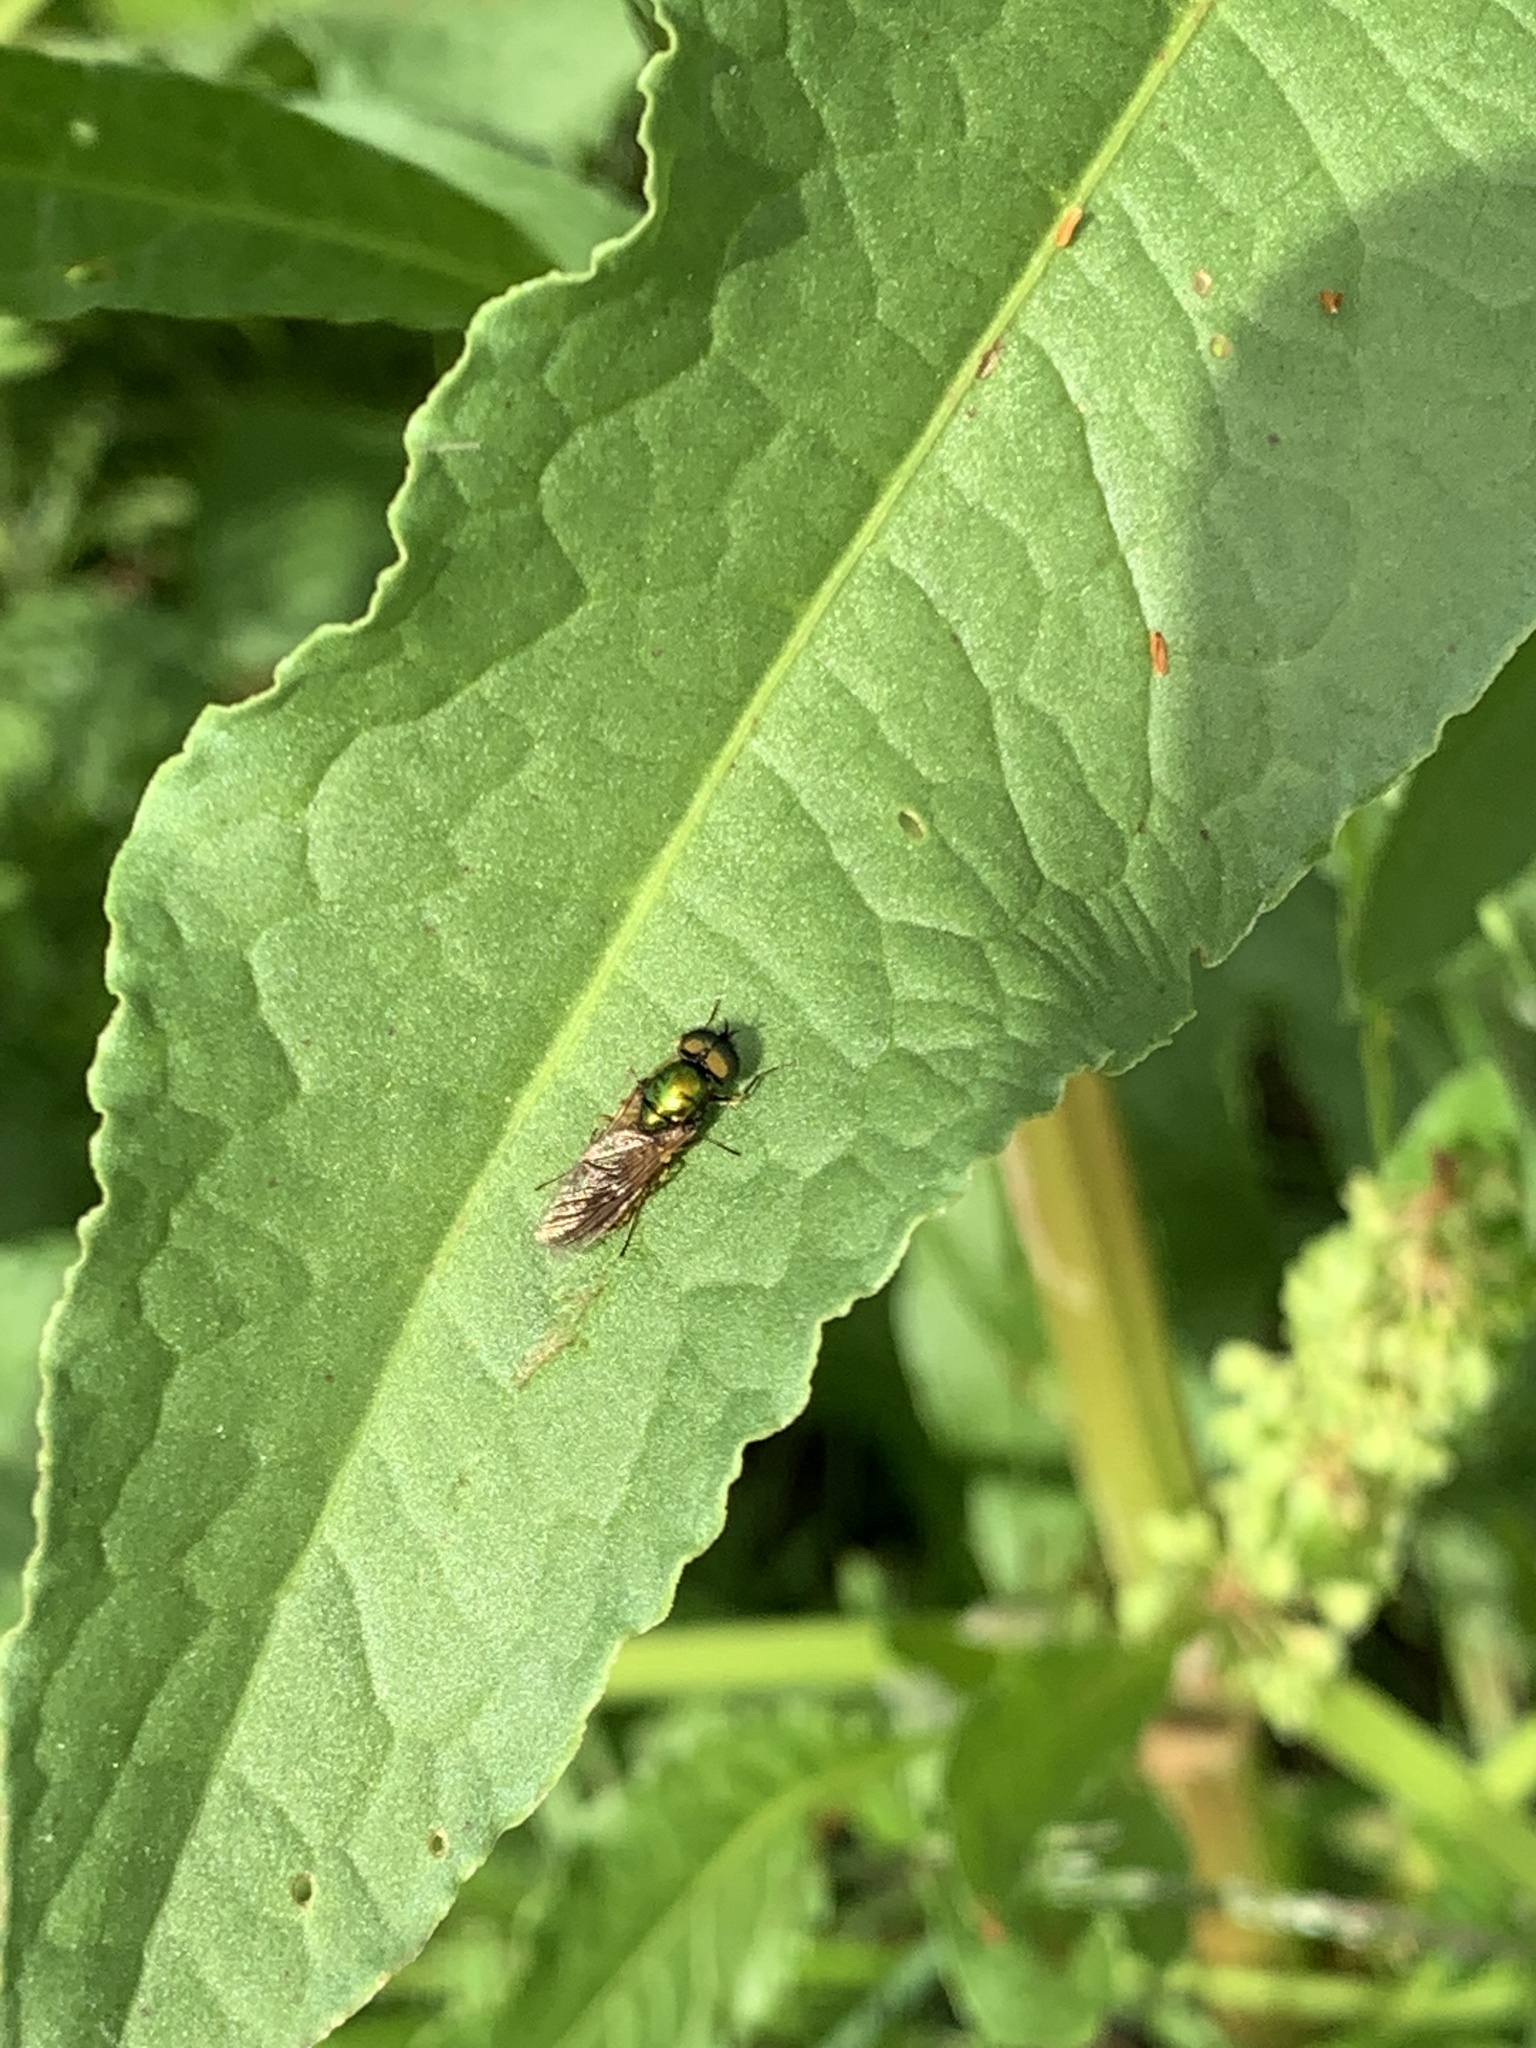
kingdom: Animalia
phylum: Arthropoda
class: Insecta
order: Diptera
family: Stratiomyidae
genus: Chloromyia
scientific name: Chloromyia formosa
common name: Soldier fly
